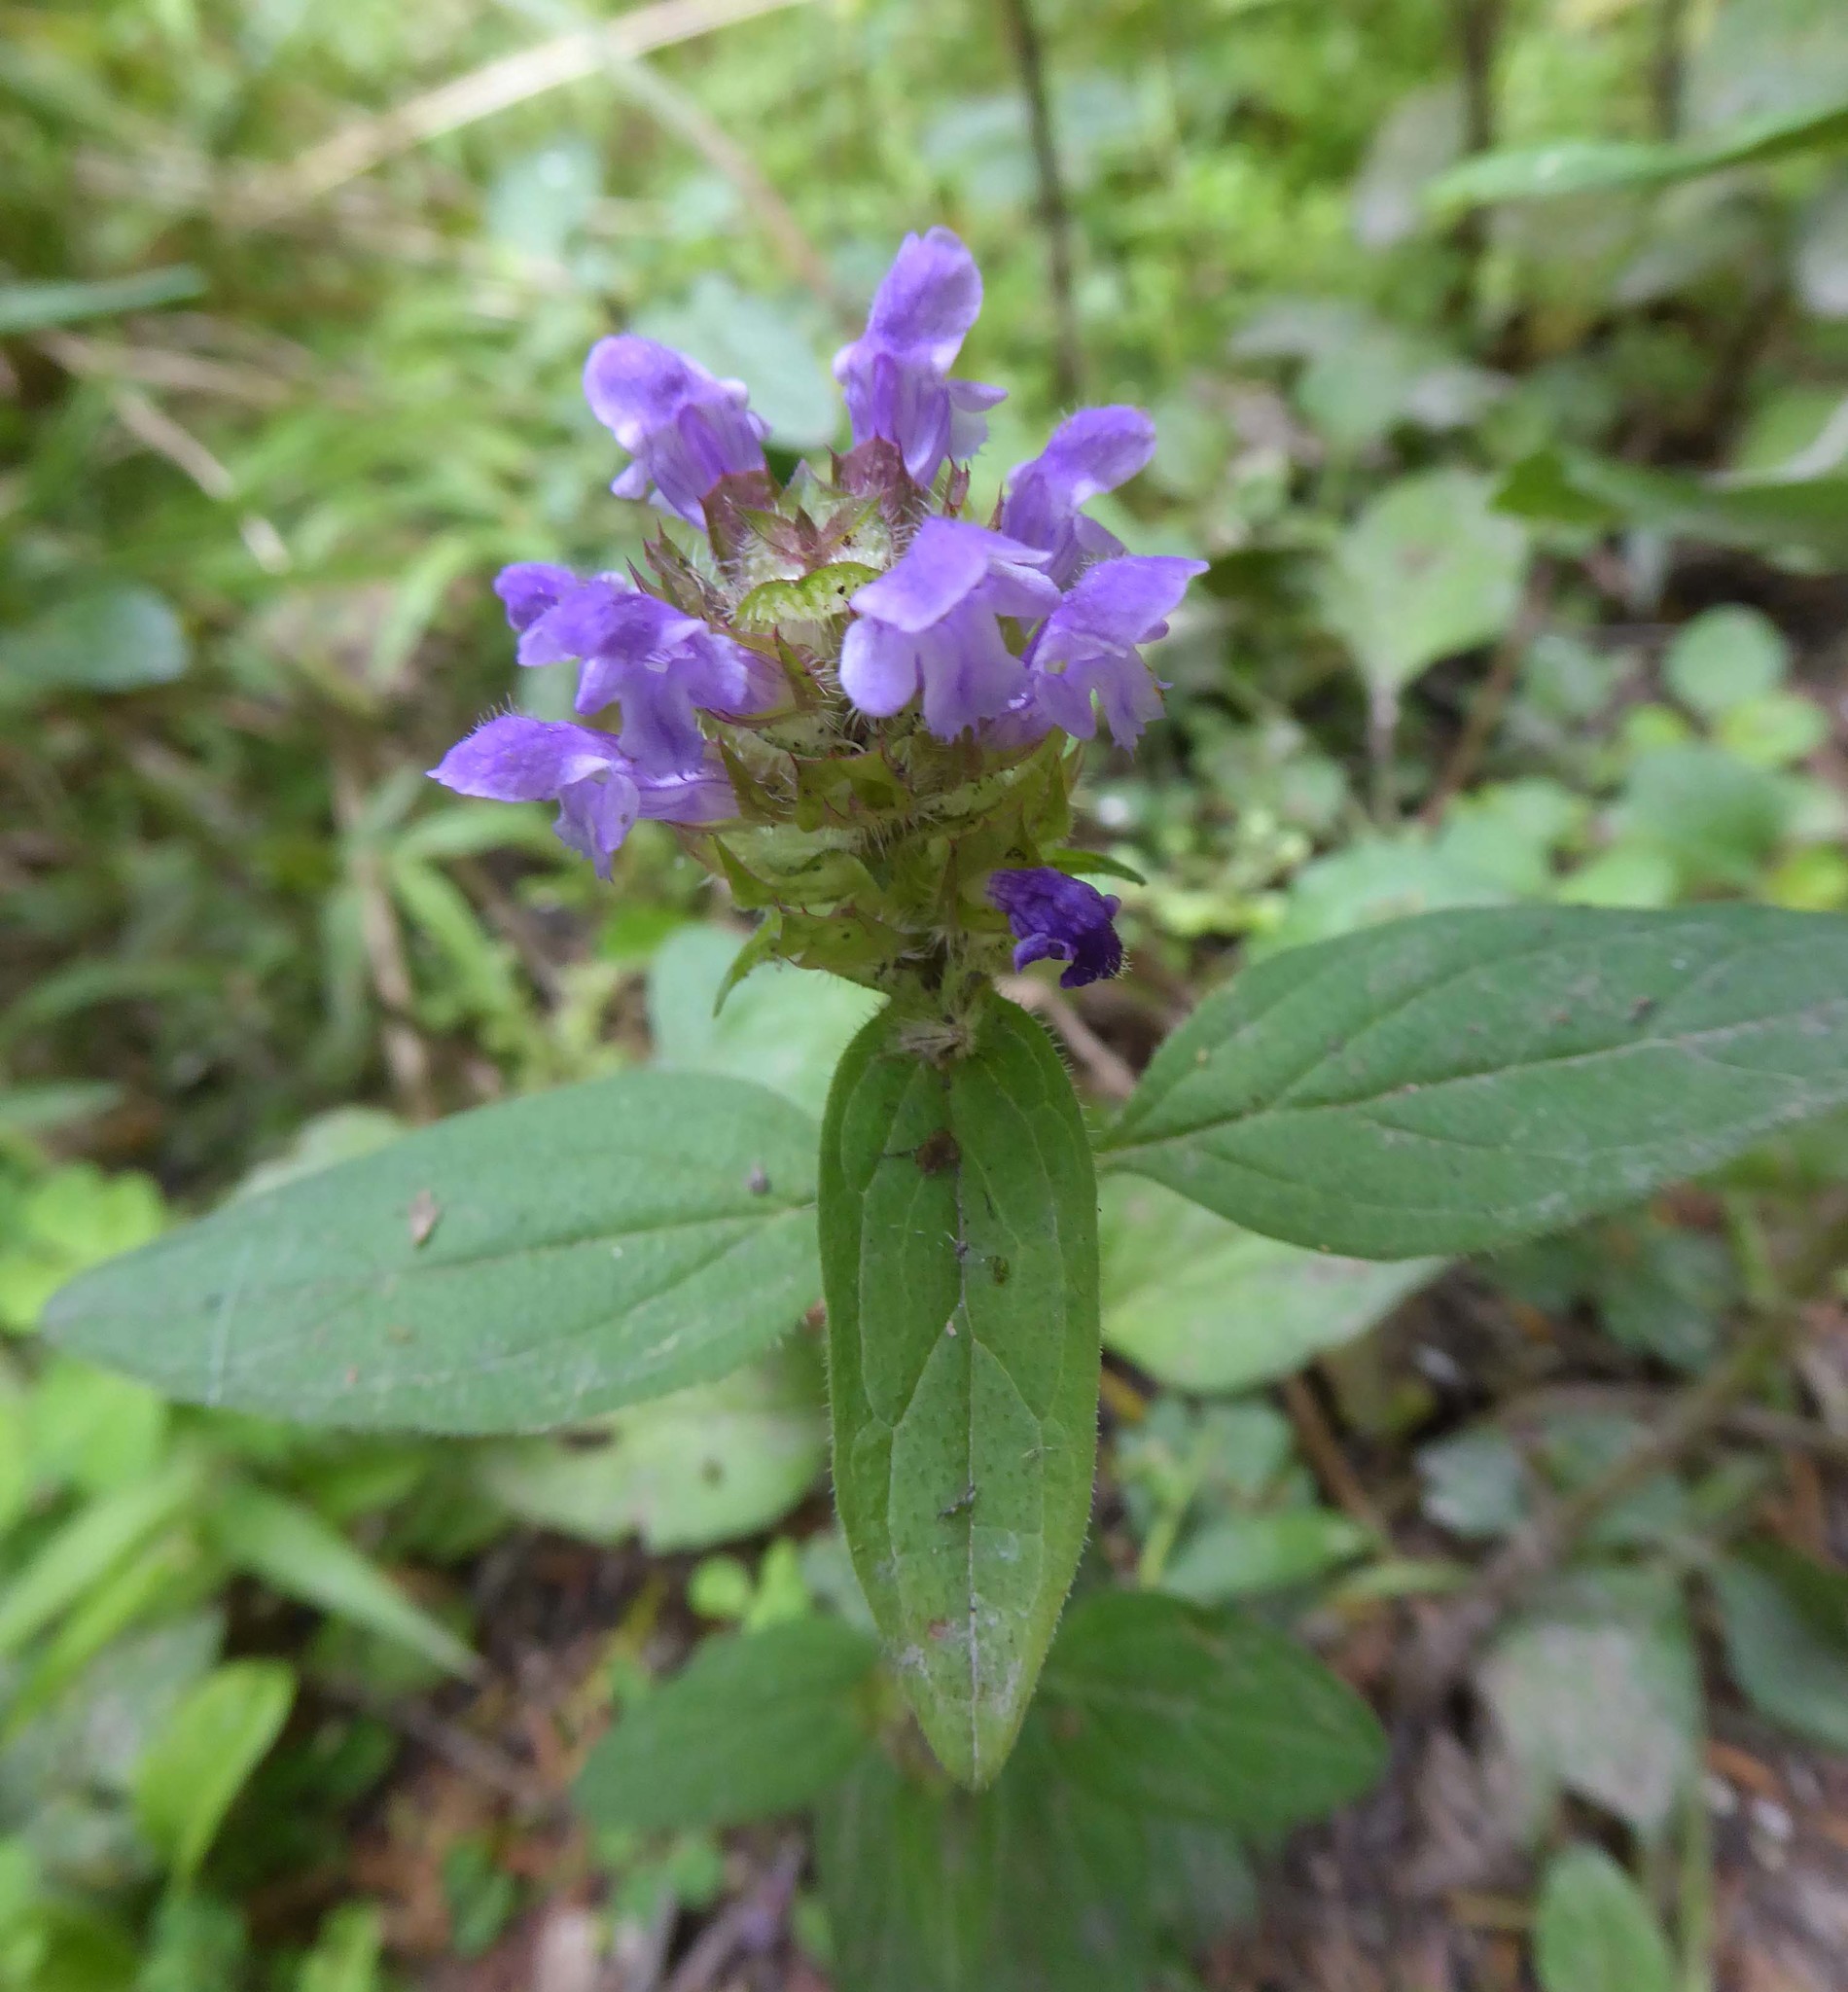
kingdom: Plantae
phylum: Tracheophyta
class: Magnoliopsida
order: Lamiales
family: Lamiaceae
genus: Prunella
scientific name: Prunella vulgaris
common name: Heal-all
